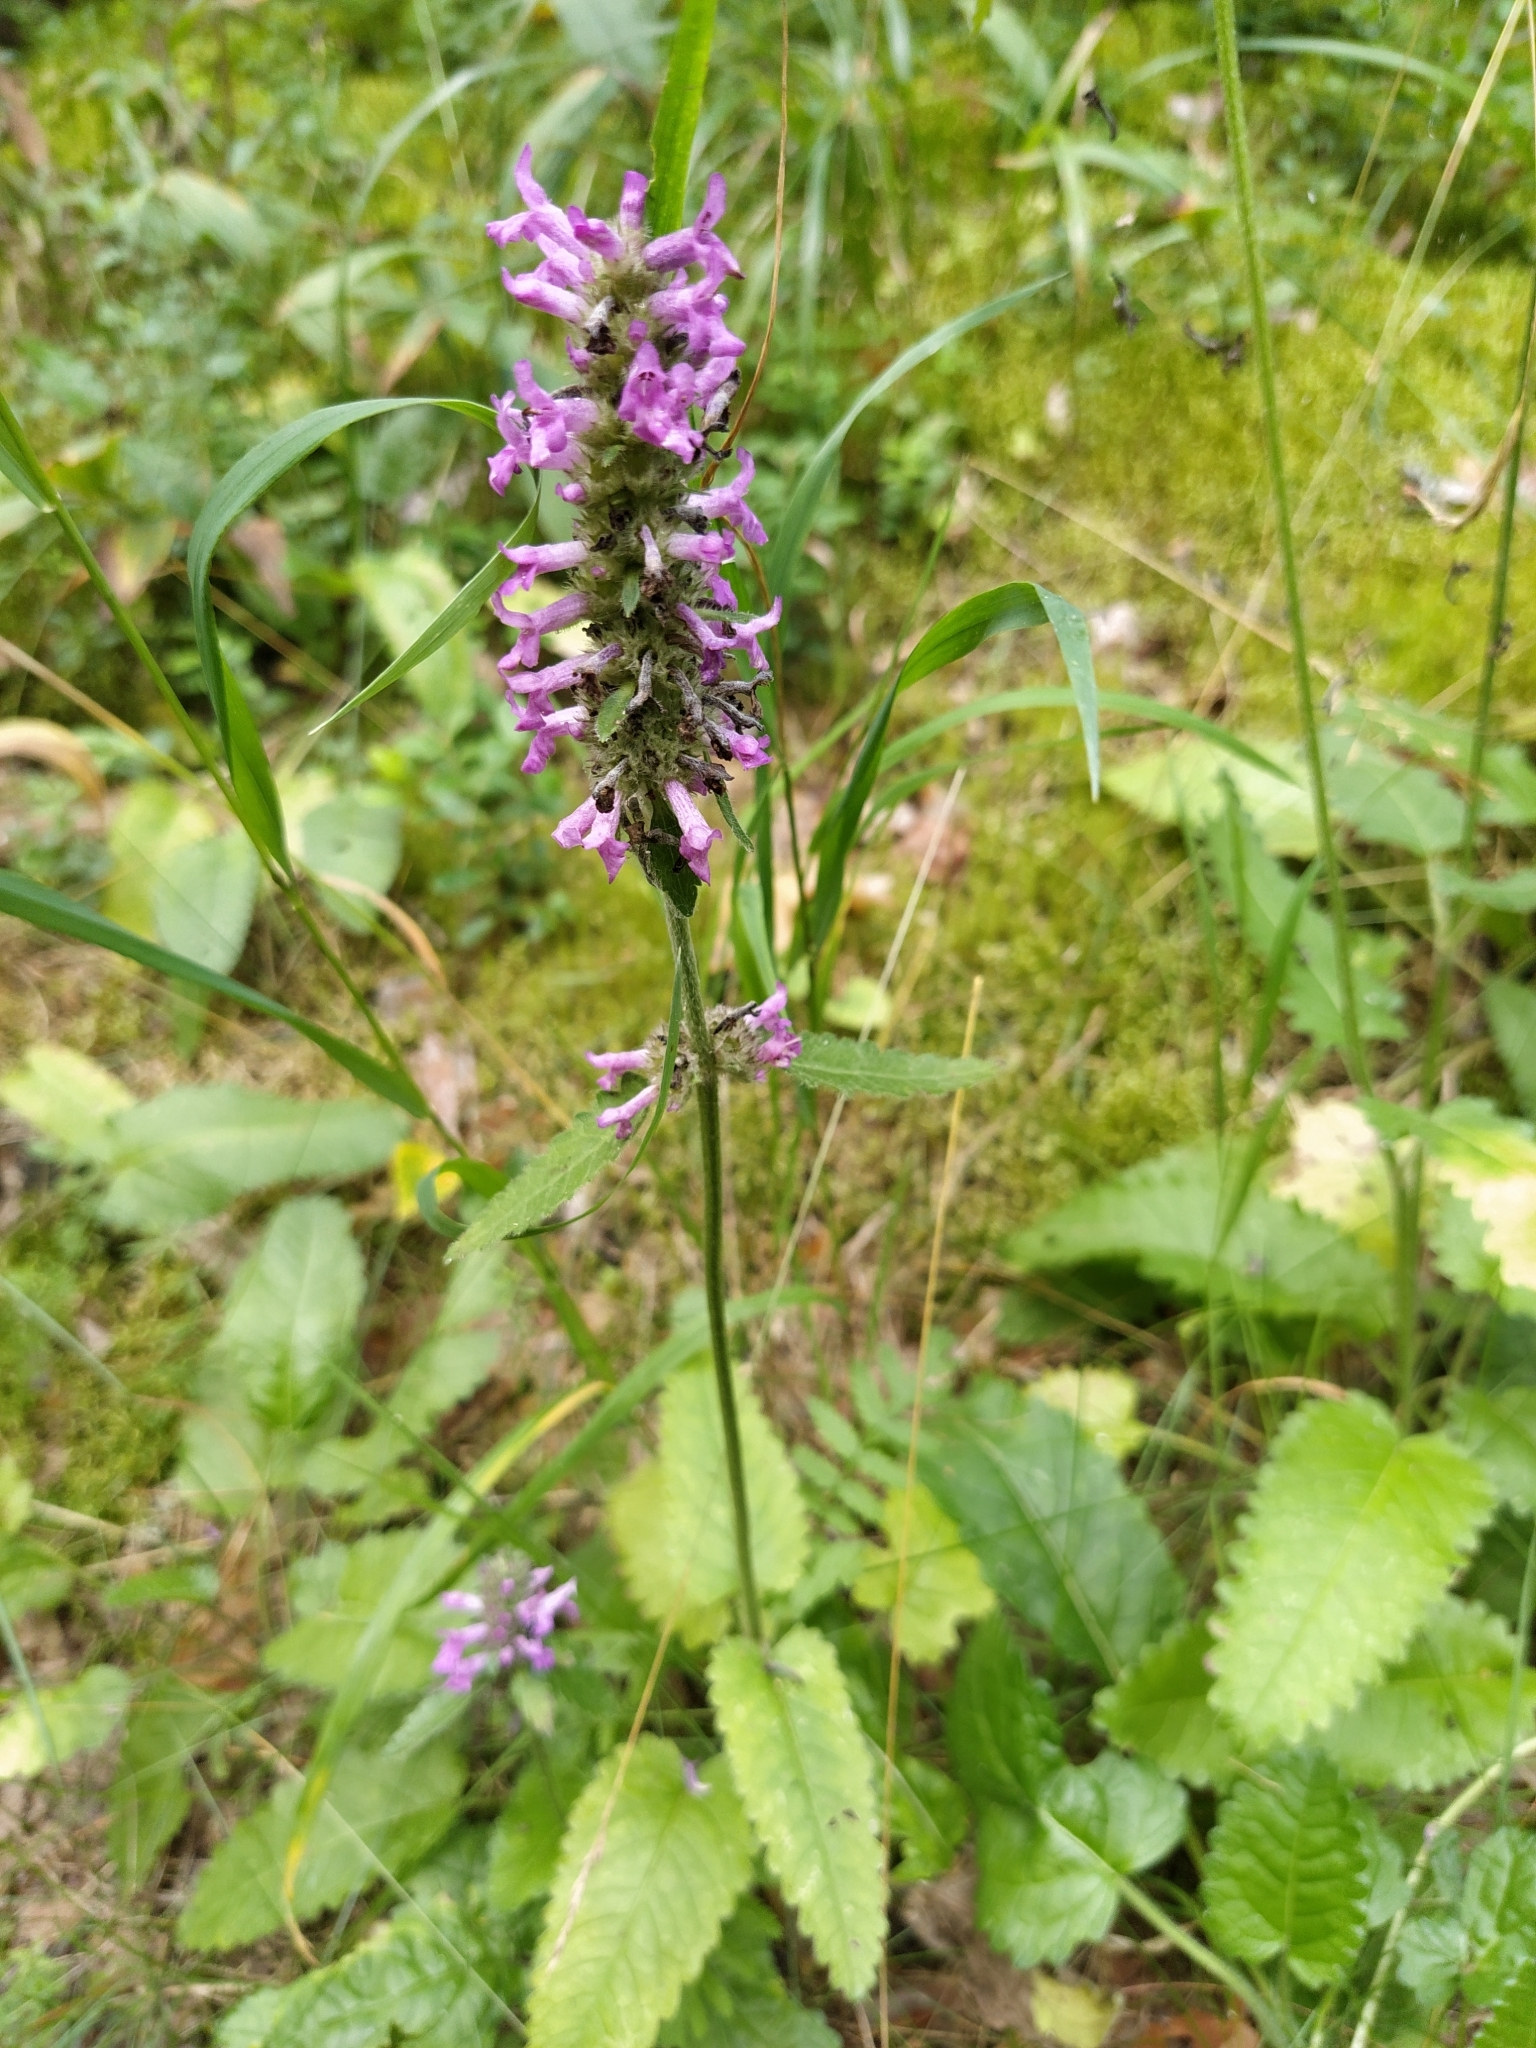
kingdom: Plantae
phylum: Tracheophyta
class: Magnoliopsida
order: Lamiales
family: Lamiaceae
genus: Betonica
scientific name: Betonica officinalis
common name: Bishop's-wort
